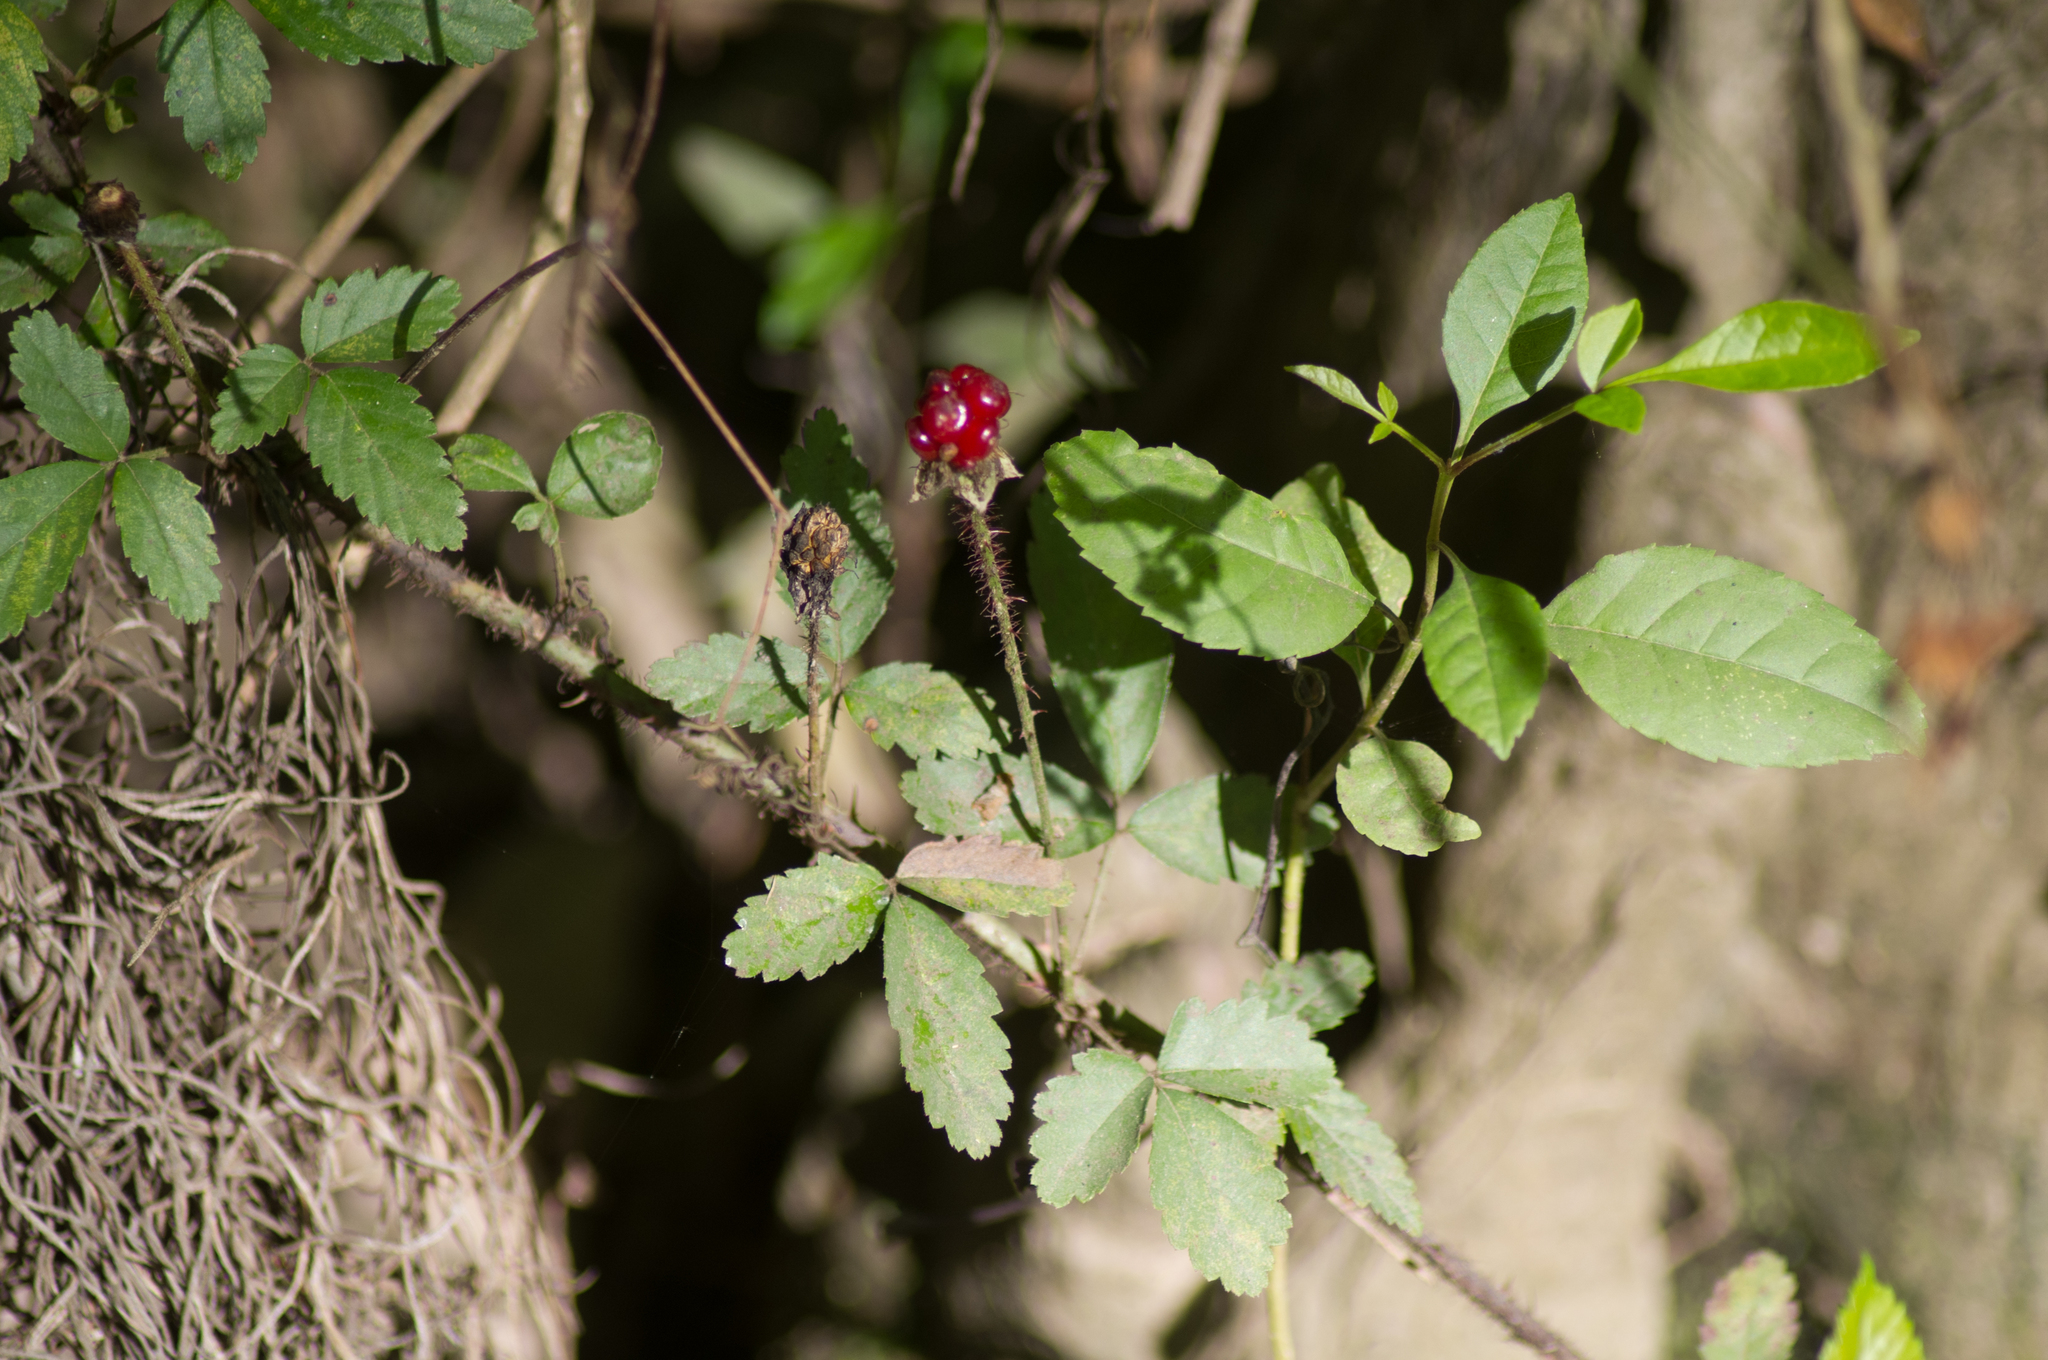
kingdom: Plantae
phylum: Tracheophyta
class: Magnoliopsida
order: Rosales
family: Rosaceae
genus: Rubus
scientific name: Rubus trivialis
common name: Southern dewberry
